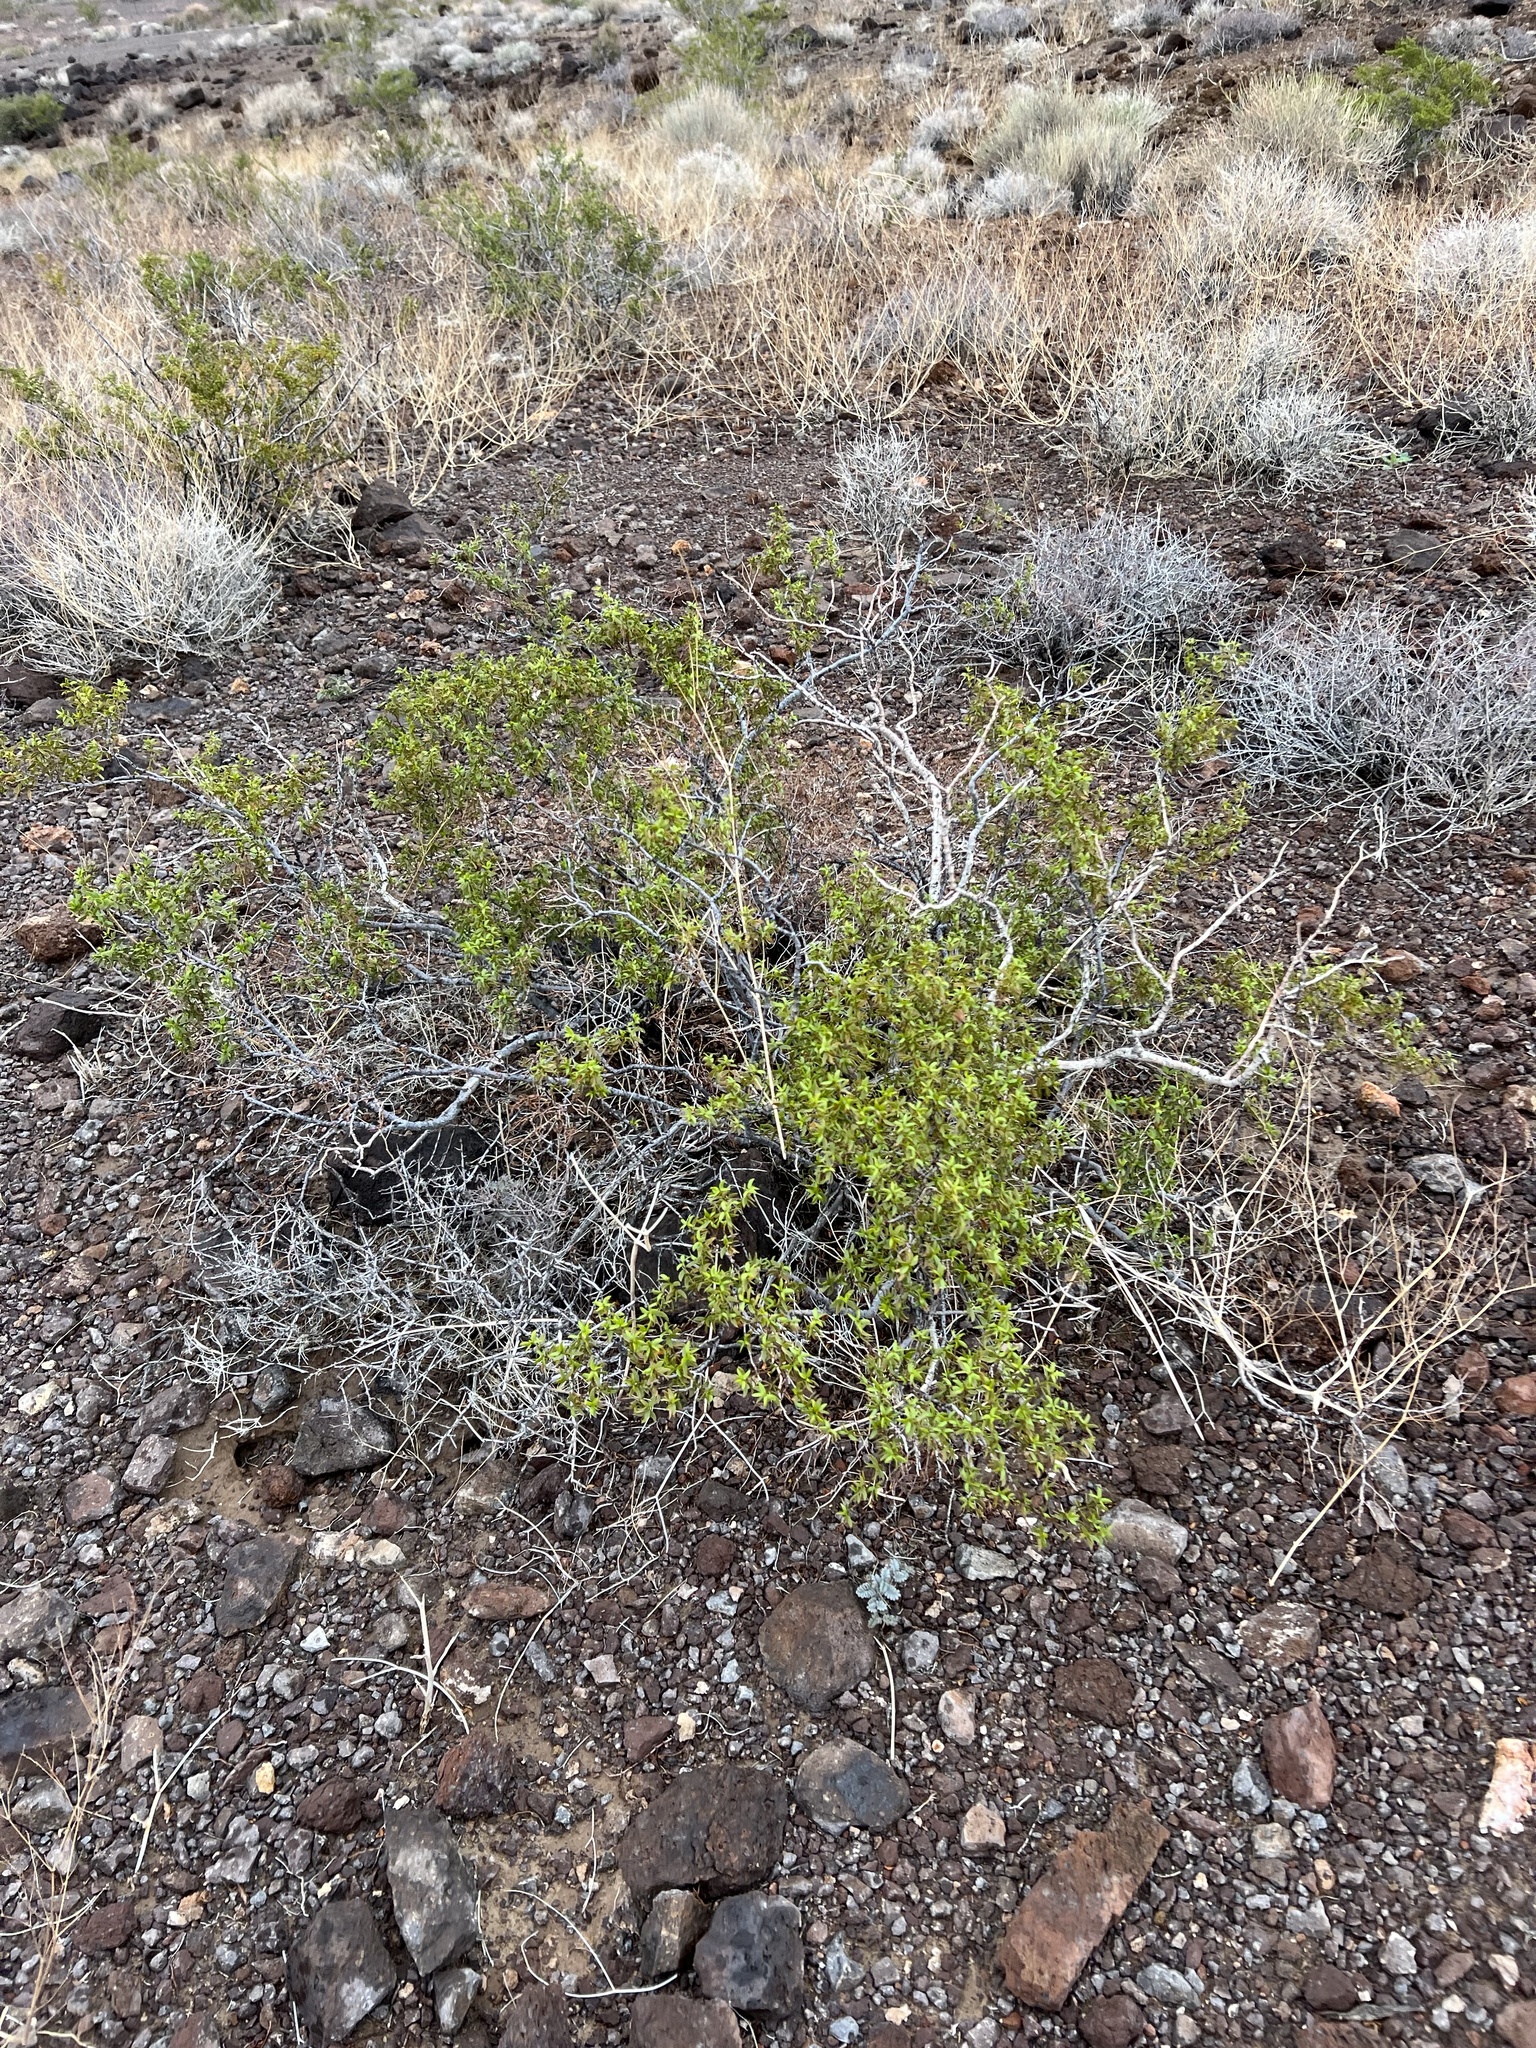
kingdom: Plantae
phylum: Tracheophyta
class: Magnoliopsida
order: Zygophyllales
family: Zygophyllaceae
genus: Larrea
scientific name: Larrea tridentata
